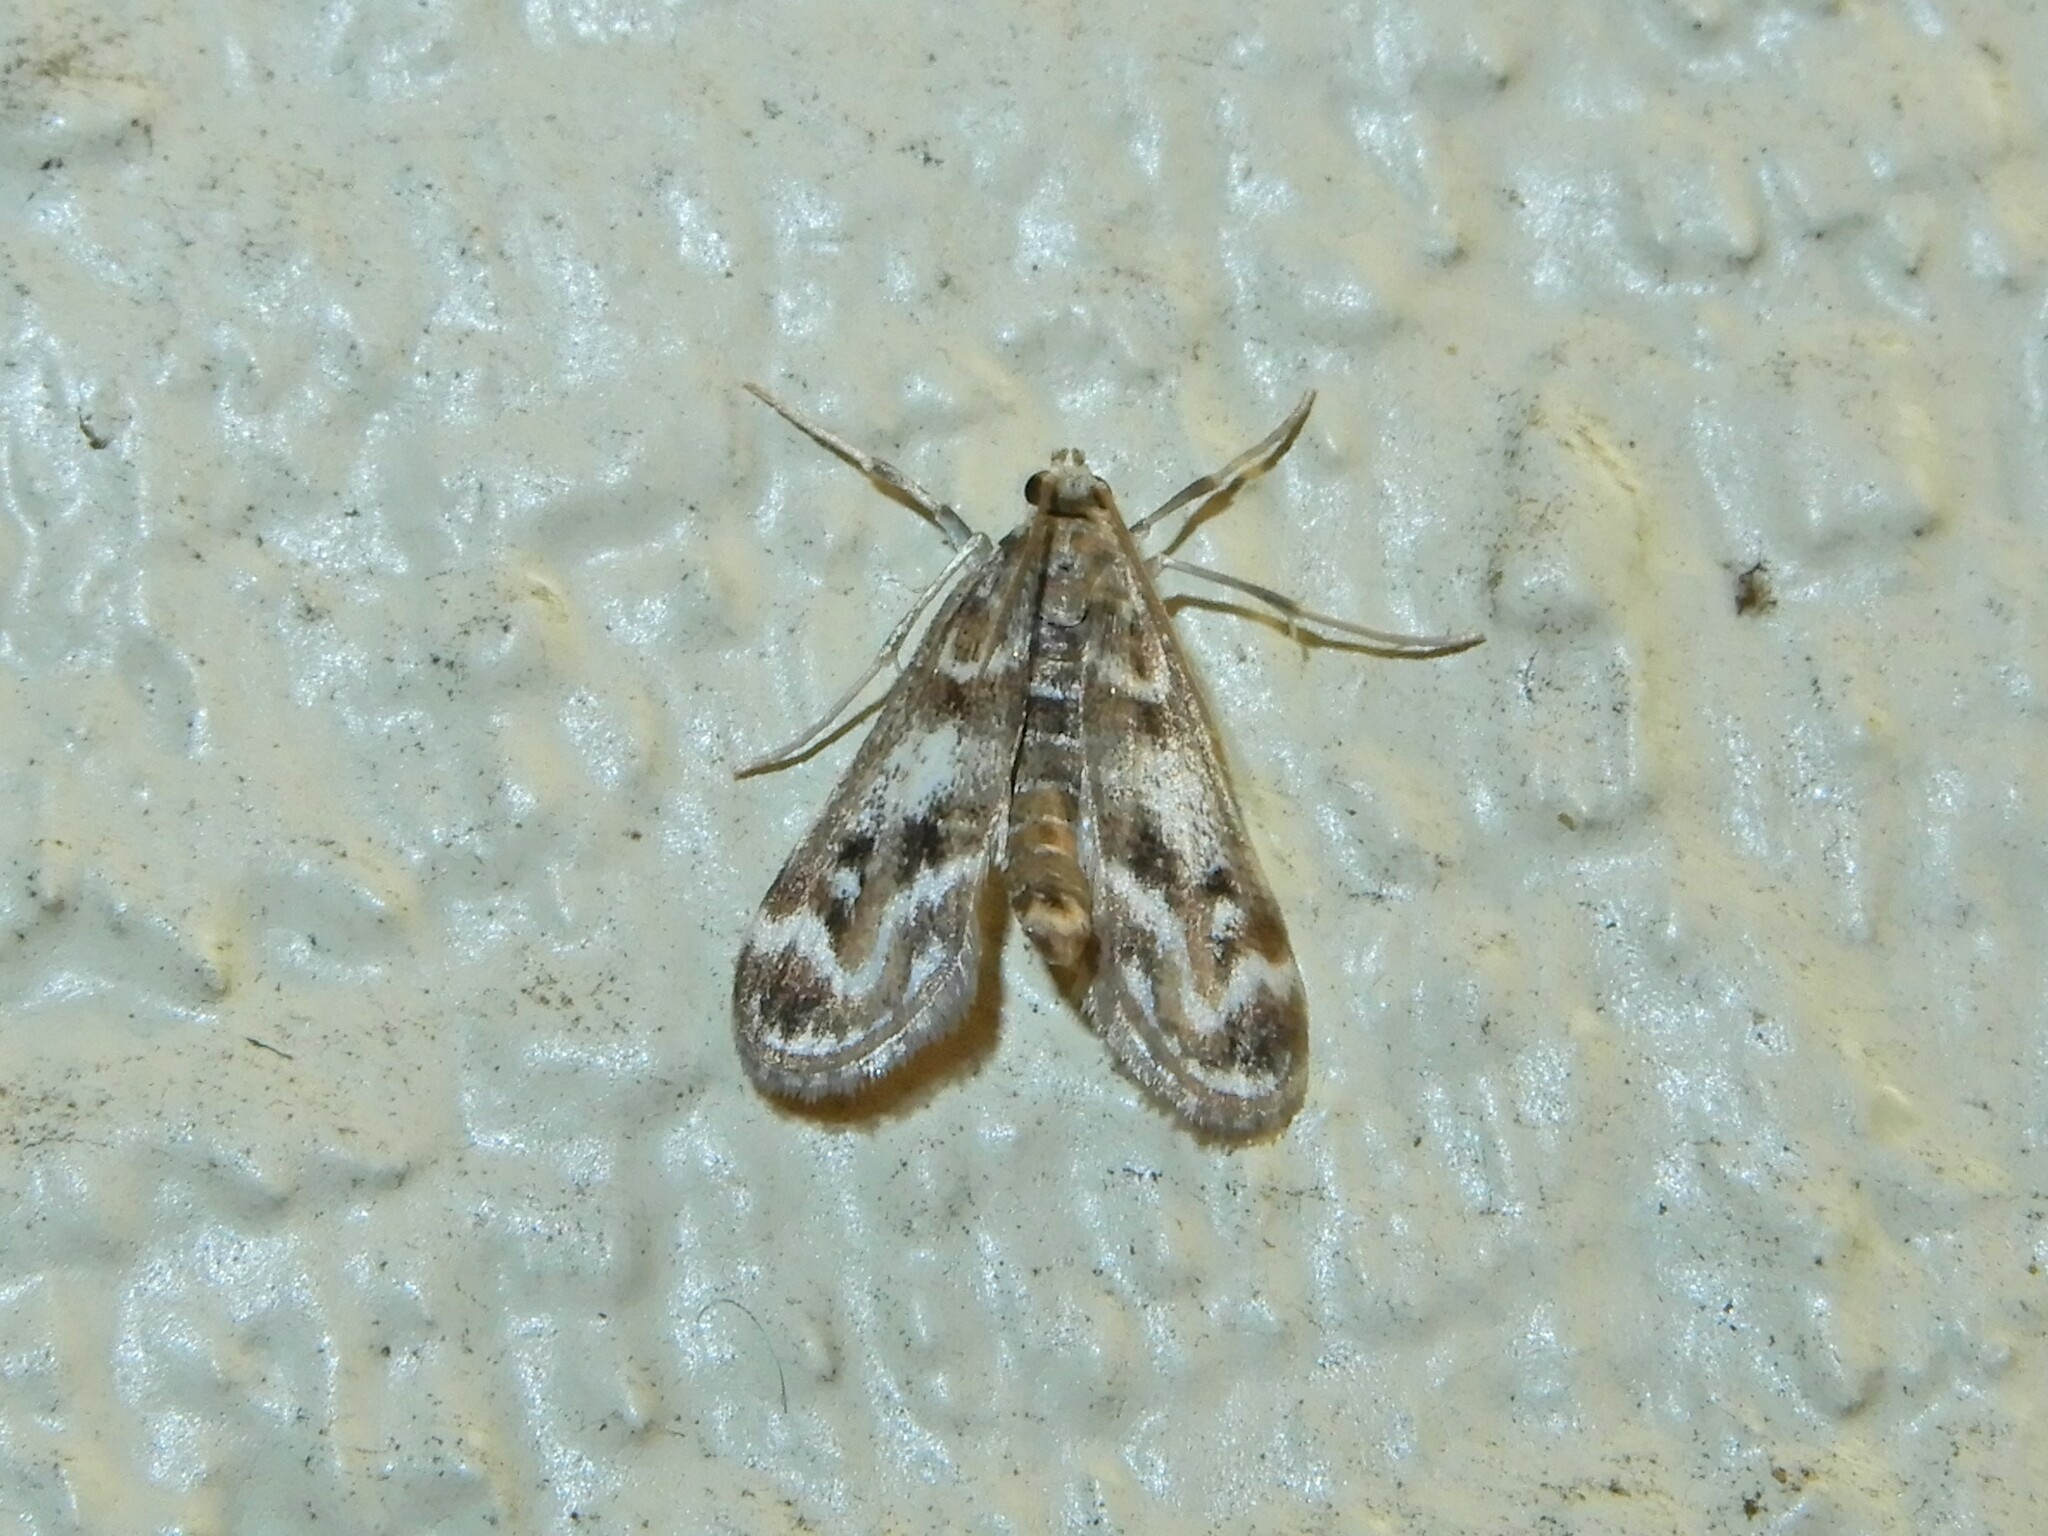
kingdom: Animalia
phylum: Arthropoda
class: Insecta
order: Lepidoptera
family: Crambidae
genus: Hygraula
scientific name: Hygraula nitens
